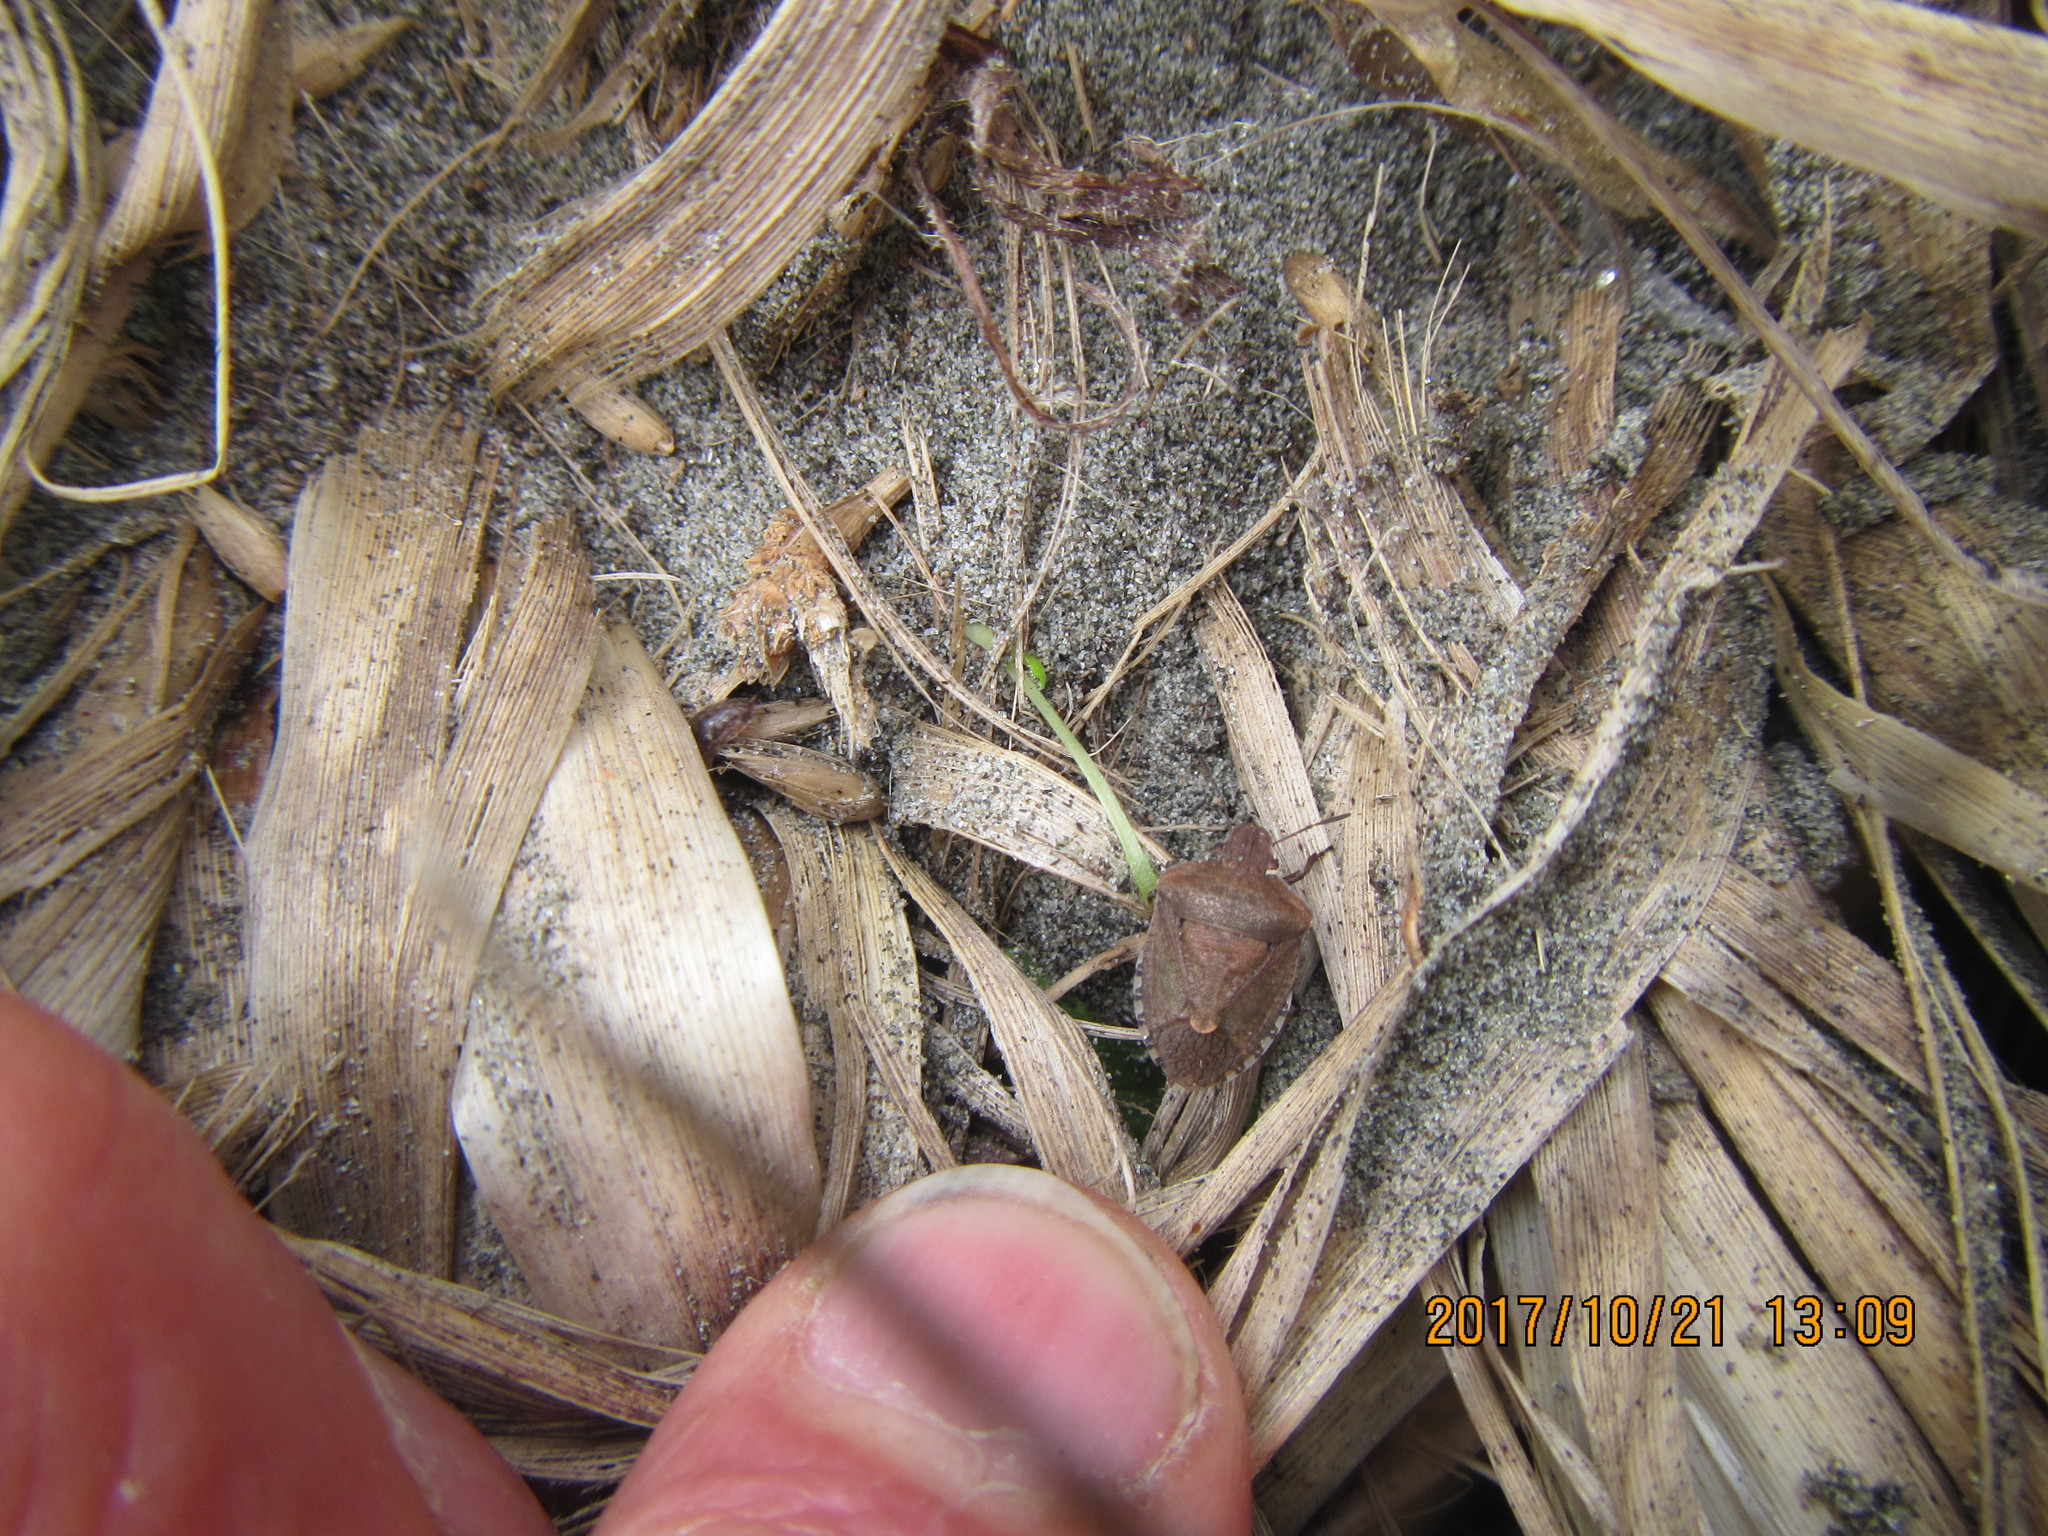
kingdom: Animalia
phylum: Arthropoda
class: Insecta
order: Hemiptera
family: Pentatomidae
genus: Dictyotus
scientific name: Dictyotus caenosus
